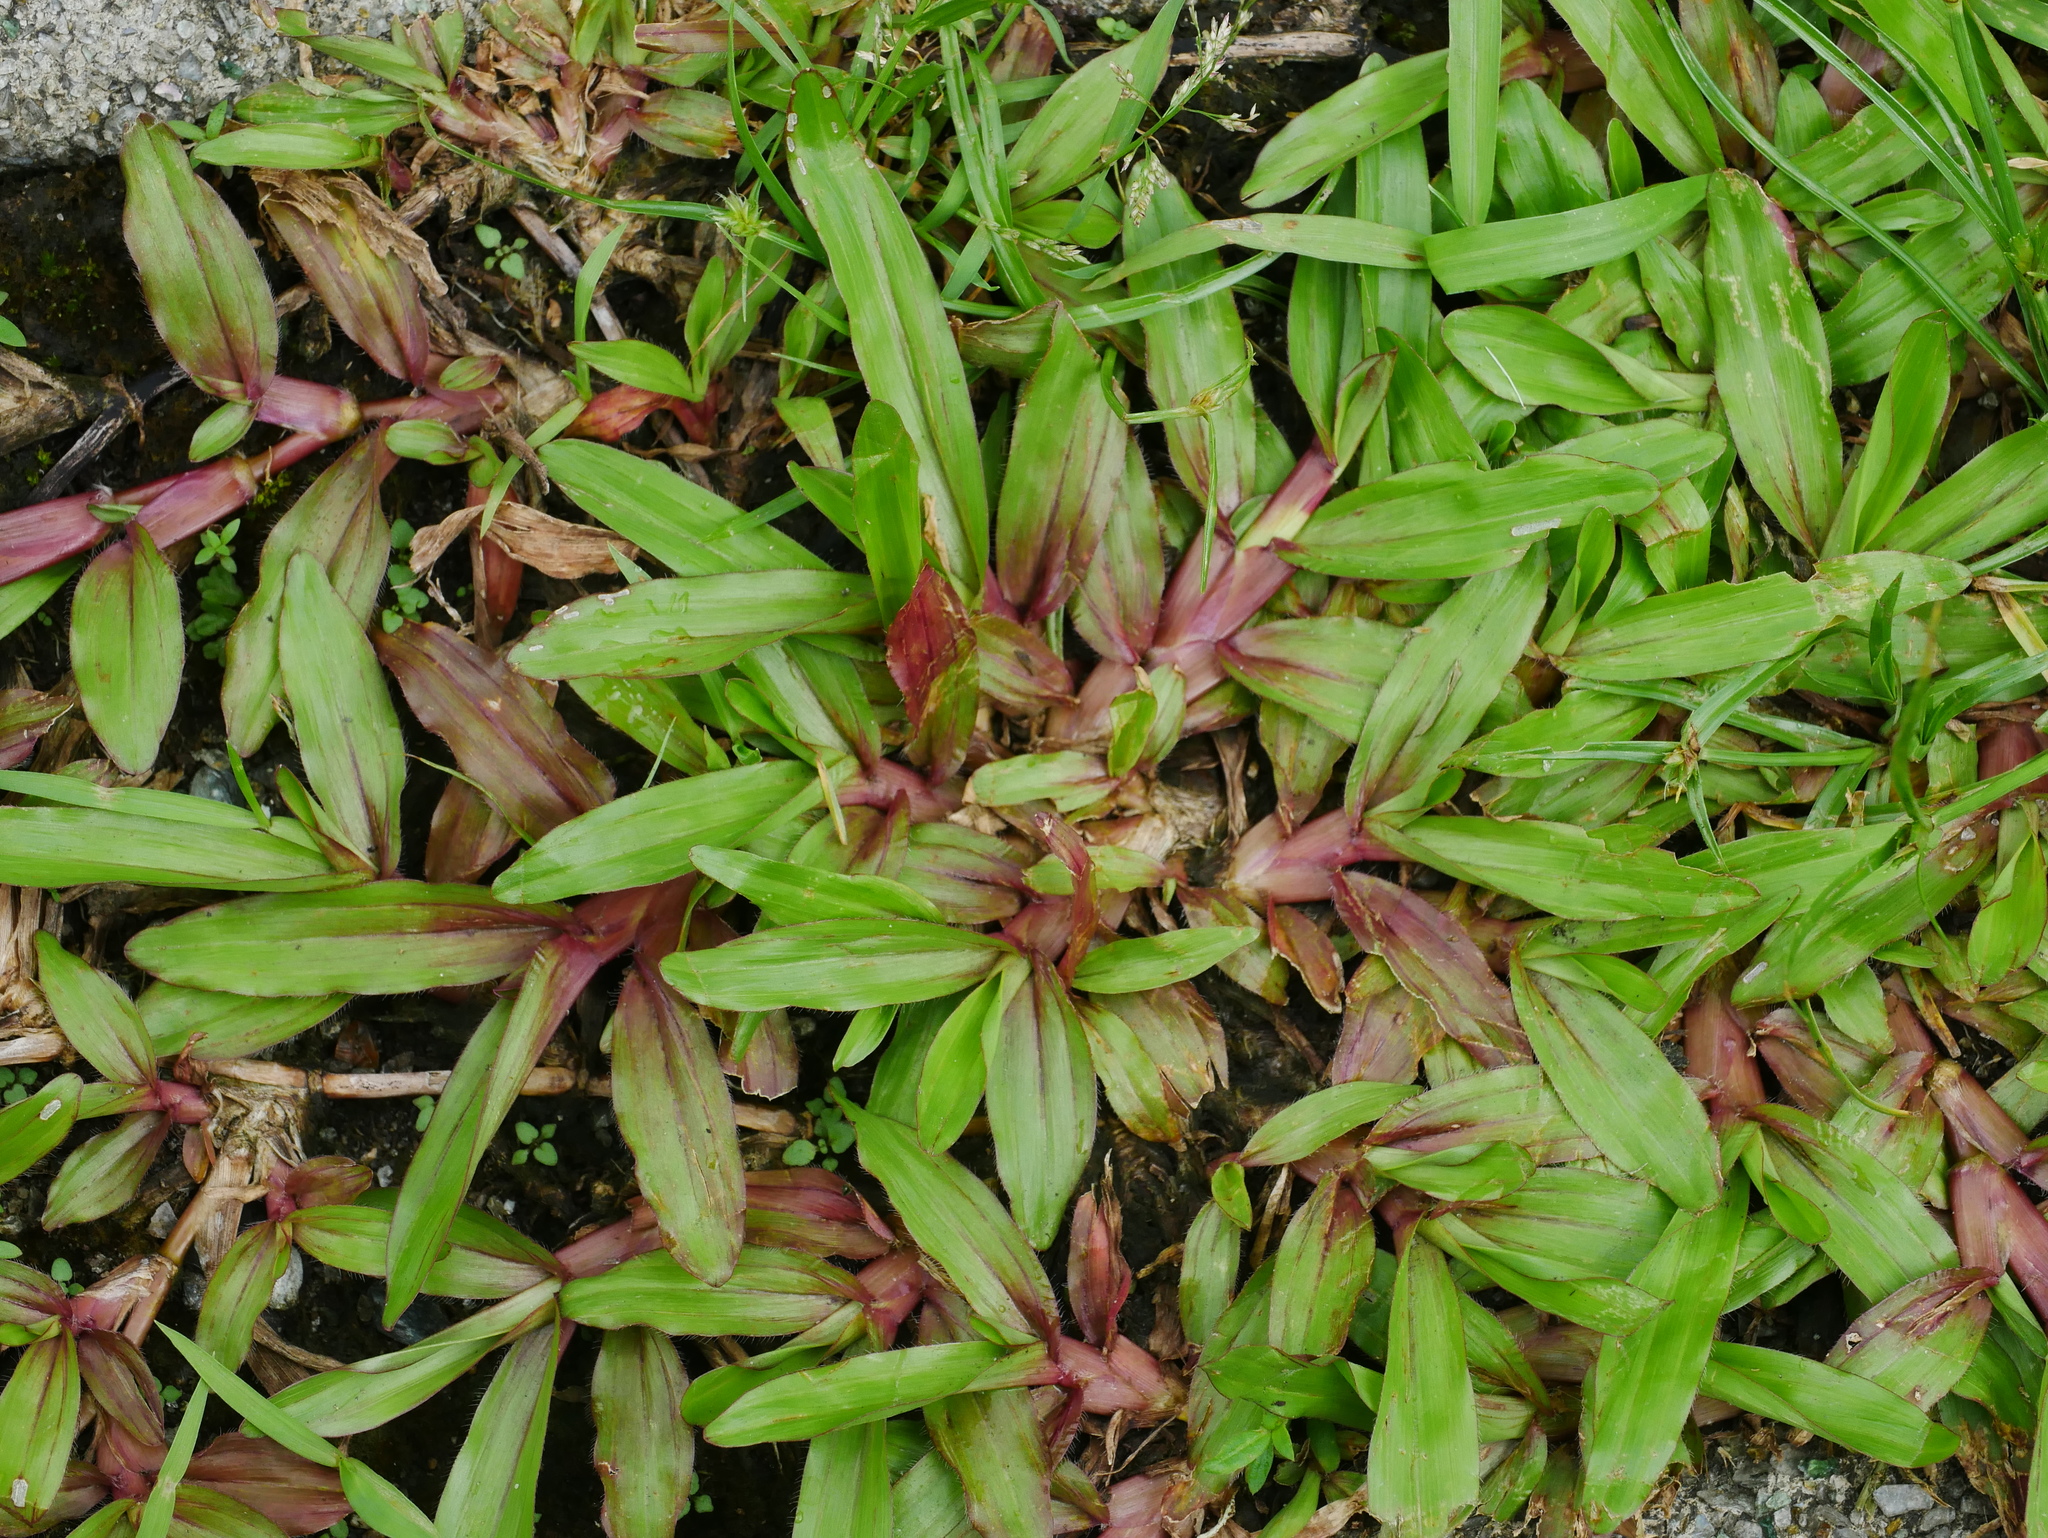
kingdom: Plantae
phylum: Tracheophyta
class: Liliopsida
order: Poales
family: Poaceae
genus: Axonopus
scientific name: Axonopus compressus
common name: American carpet grass
